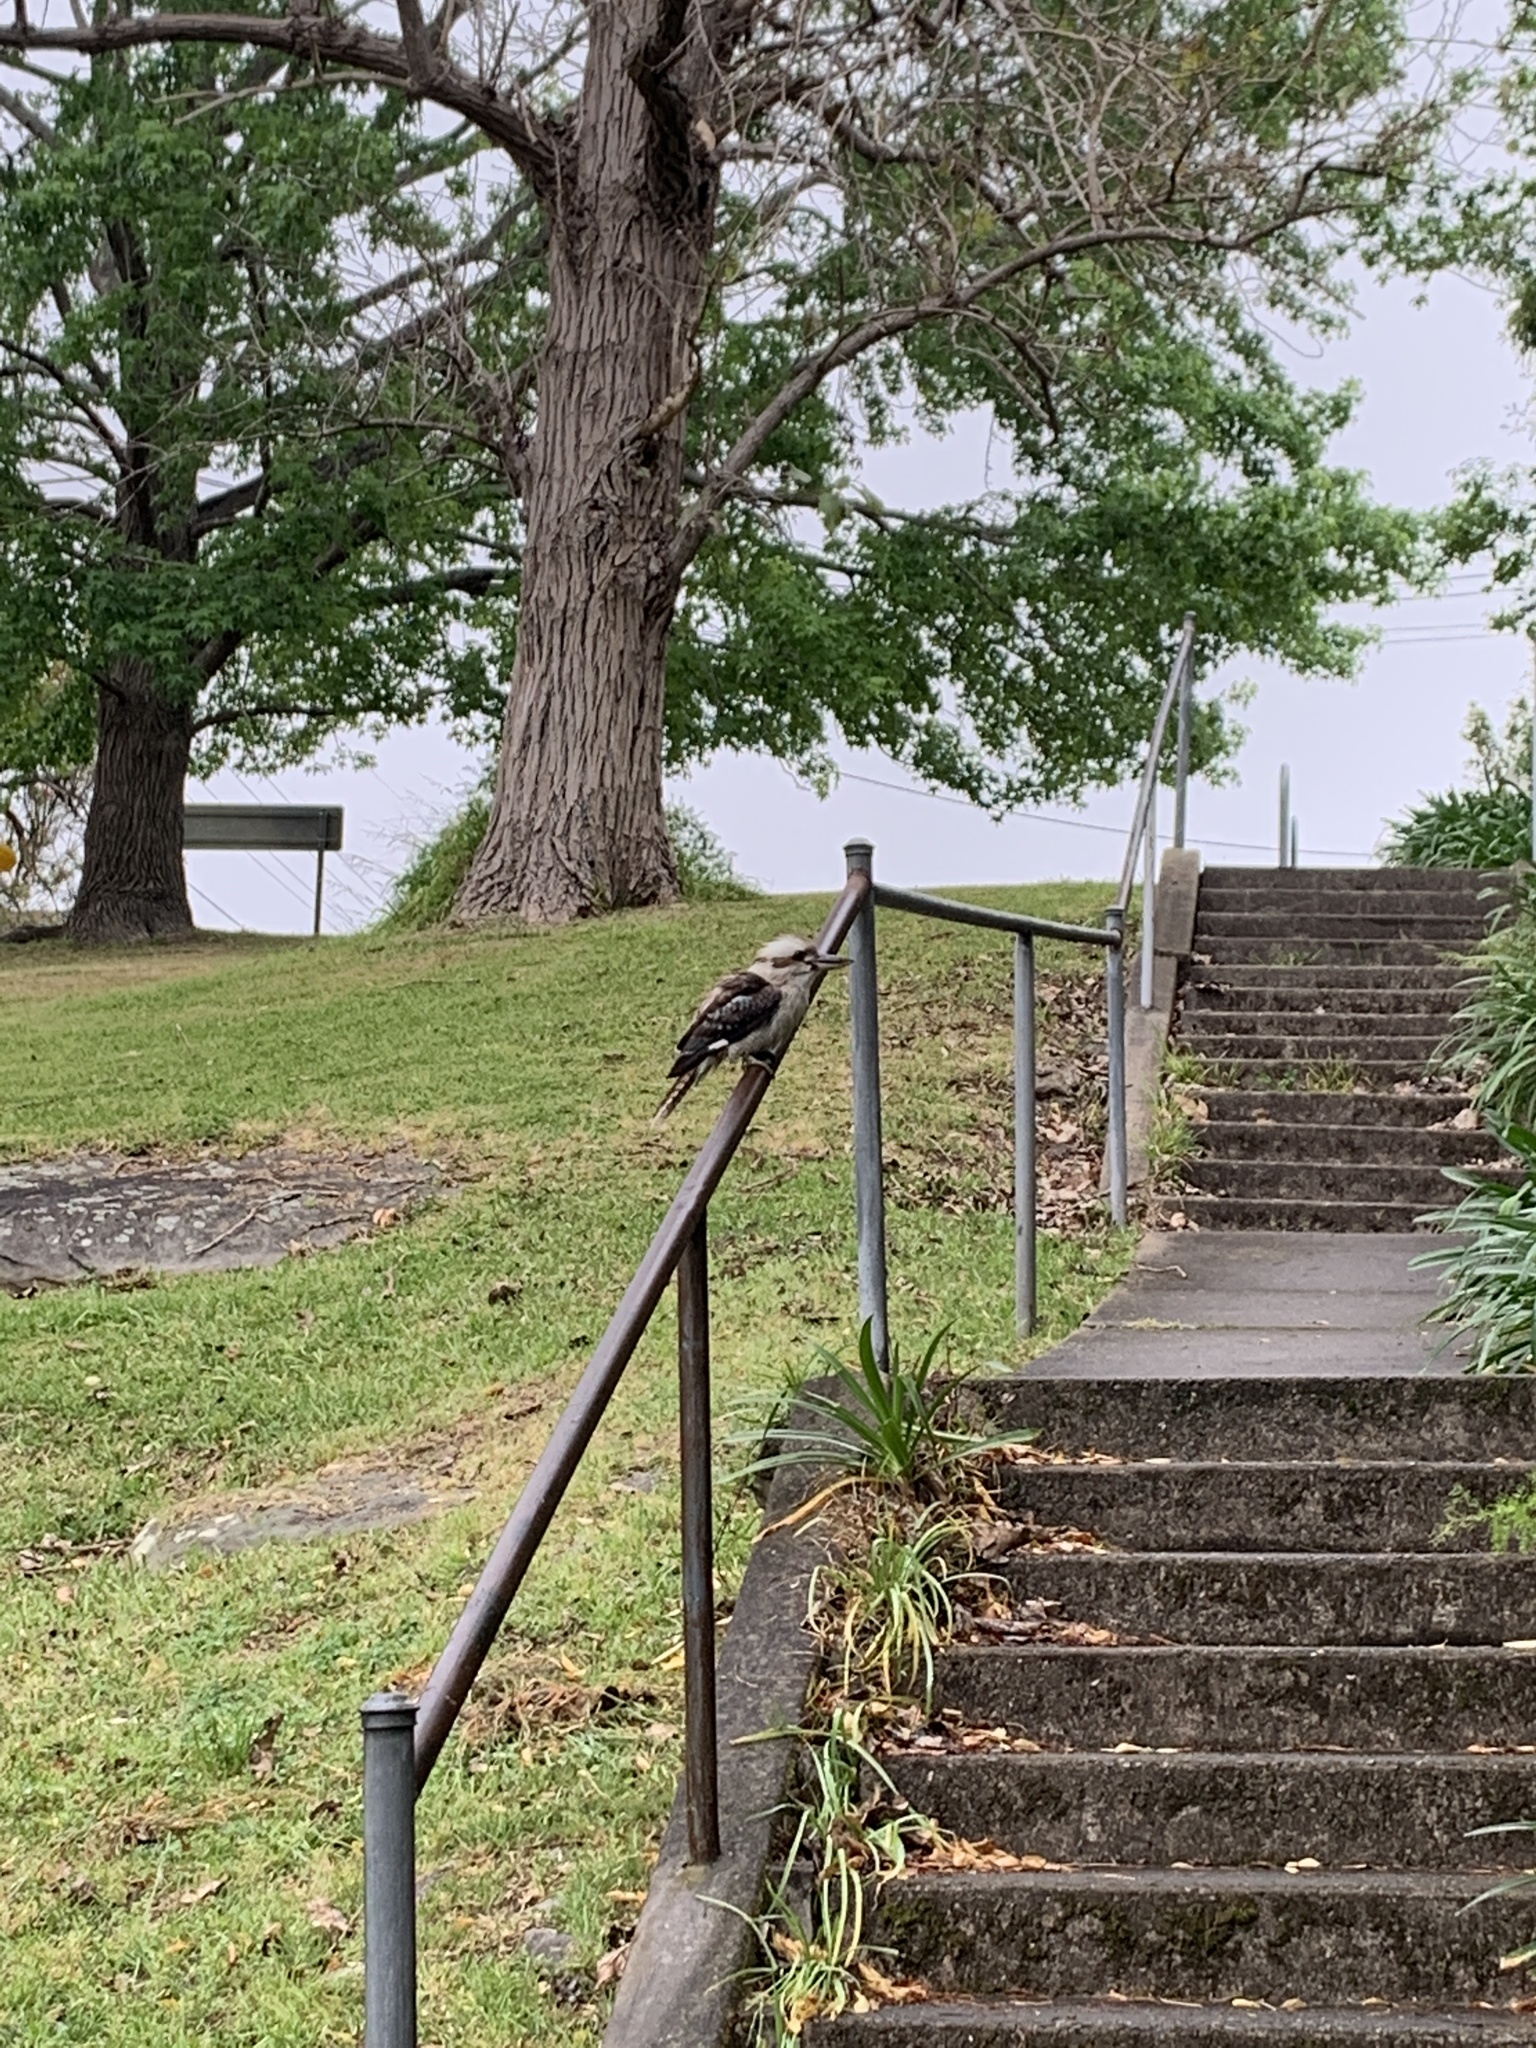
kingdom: Animalia
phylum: Chordata
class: Aves
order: Coraciiformes
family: Alcedinidae
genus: Dacelo
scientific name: Dacelo novaeguineae
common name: Laughing kookaburra
